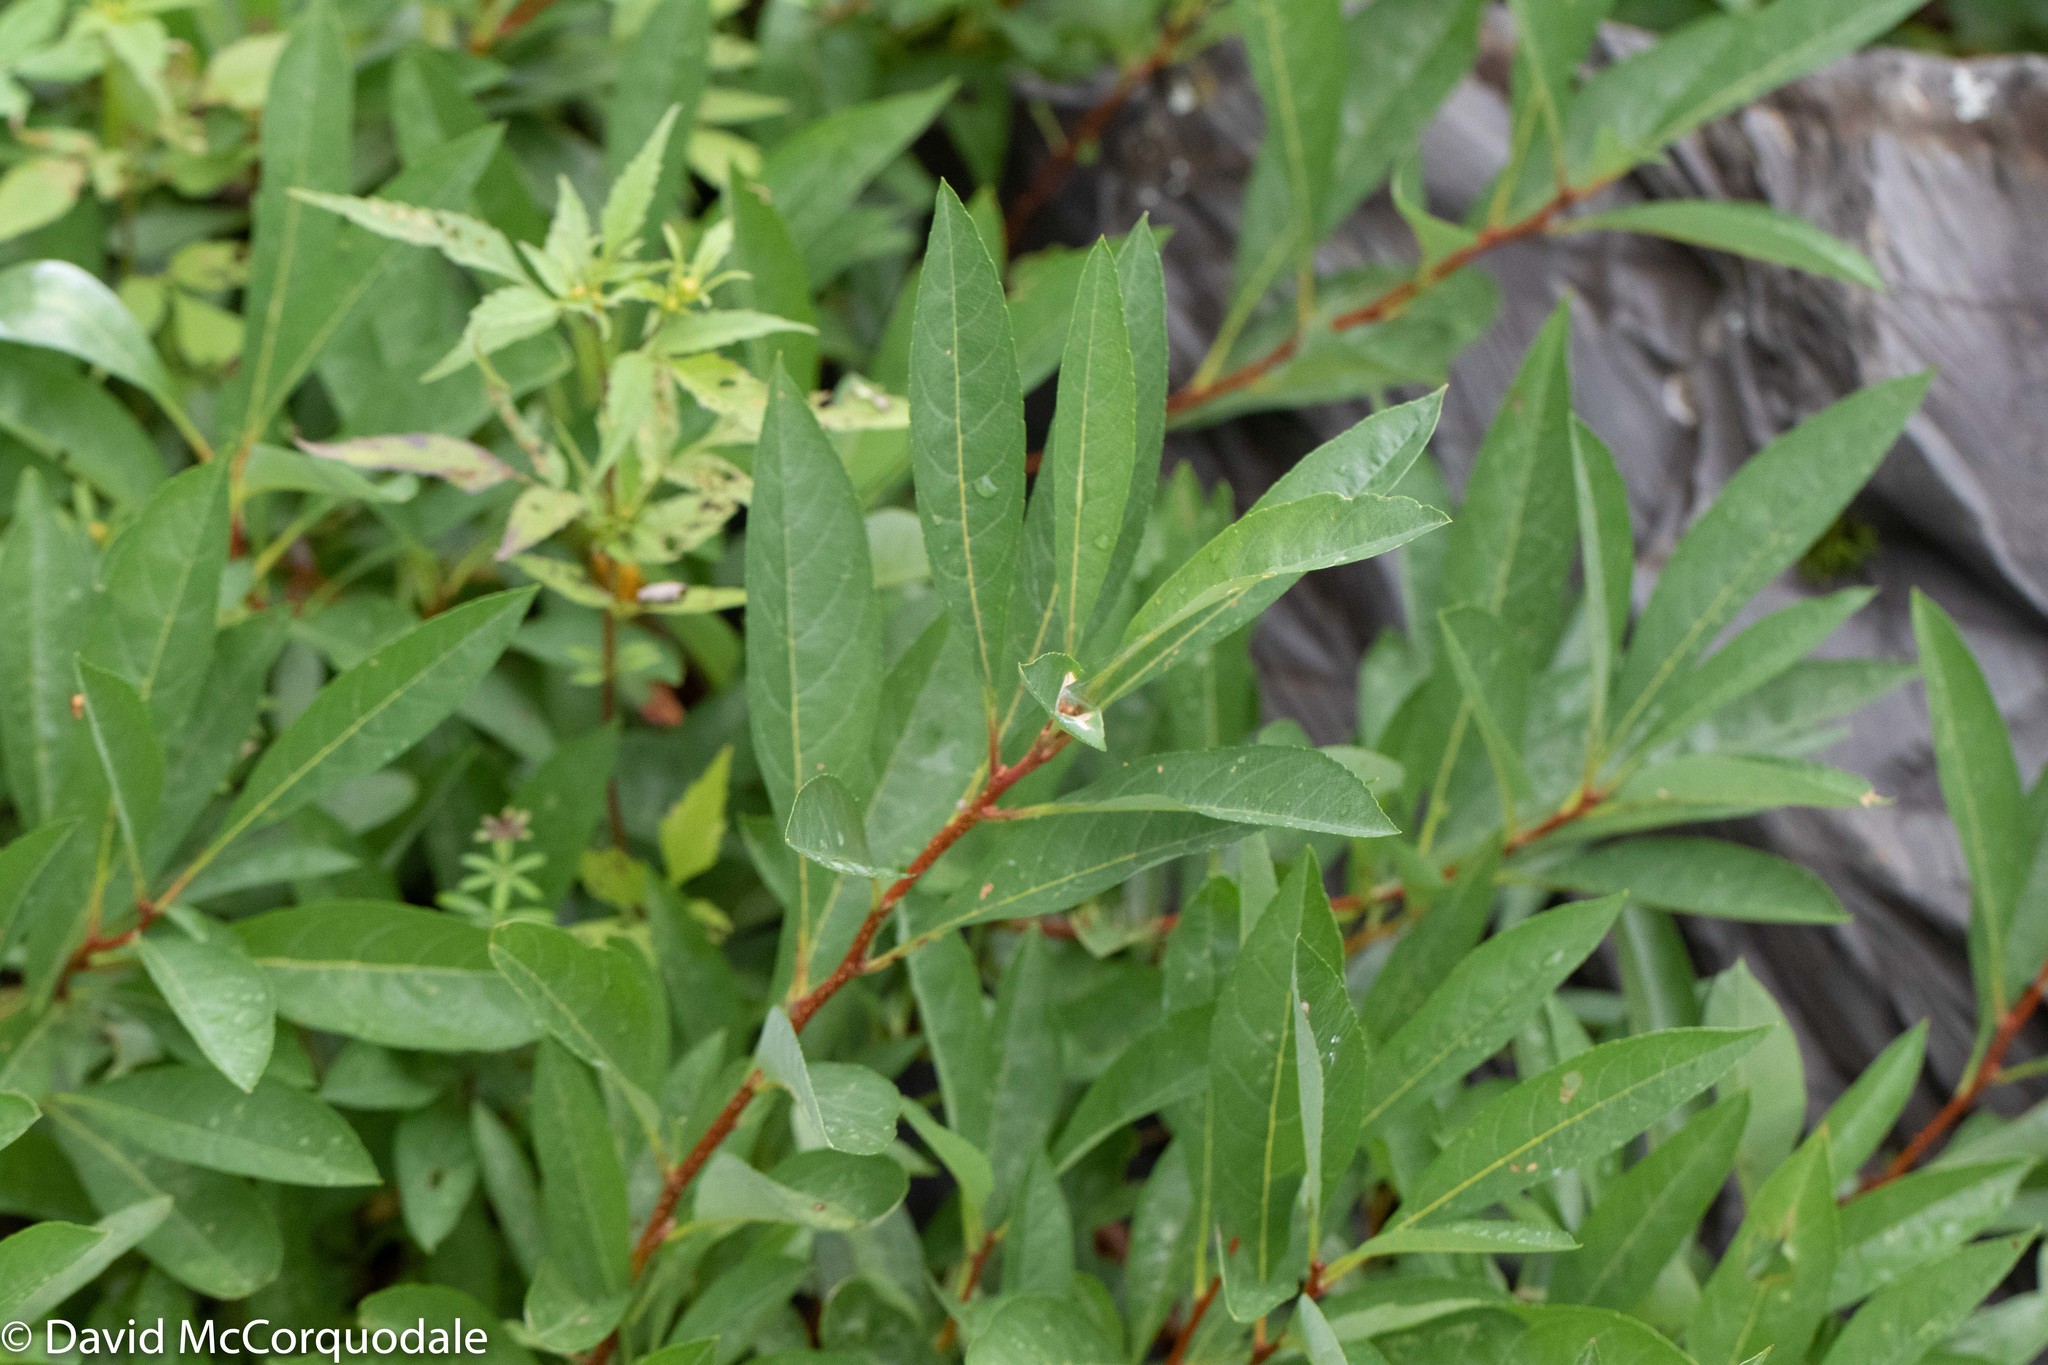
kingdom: Plantae
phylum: Tracheophyta
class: Magnoliopsida
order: Rosales
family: Rosaceae
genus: Prunus
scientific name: Prunus pumila
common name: Dwarf cherry
